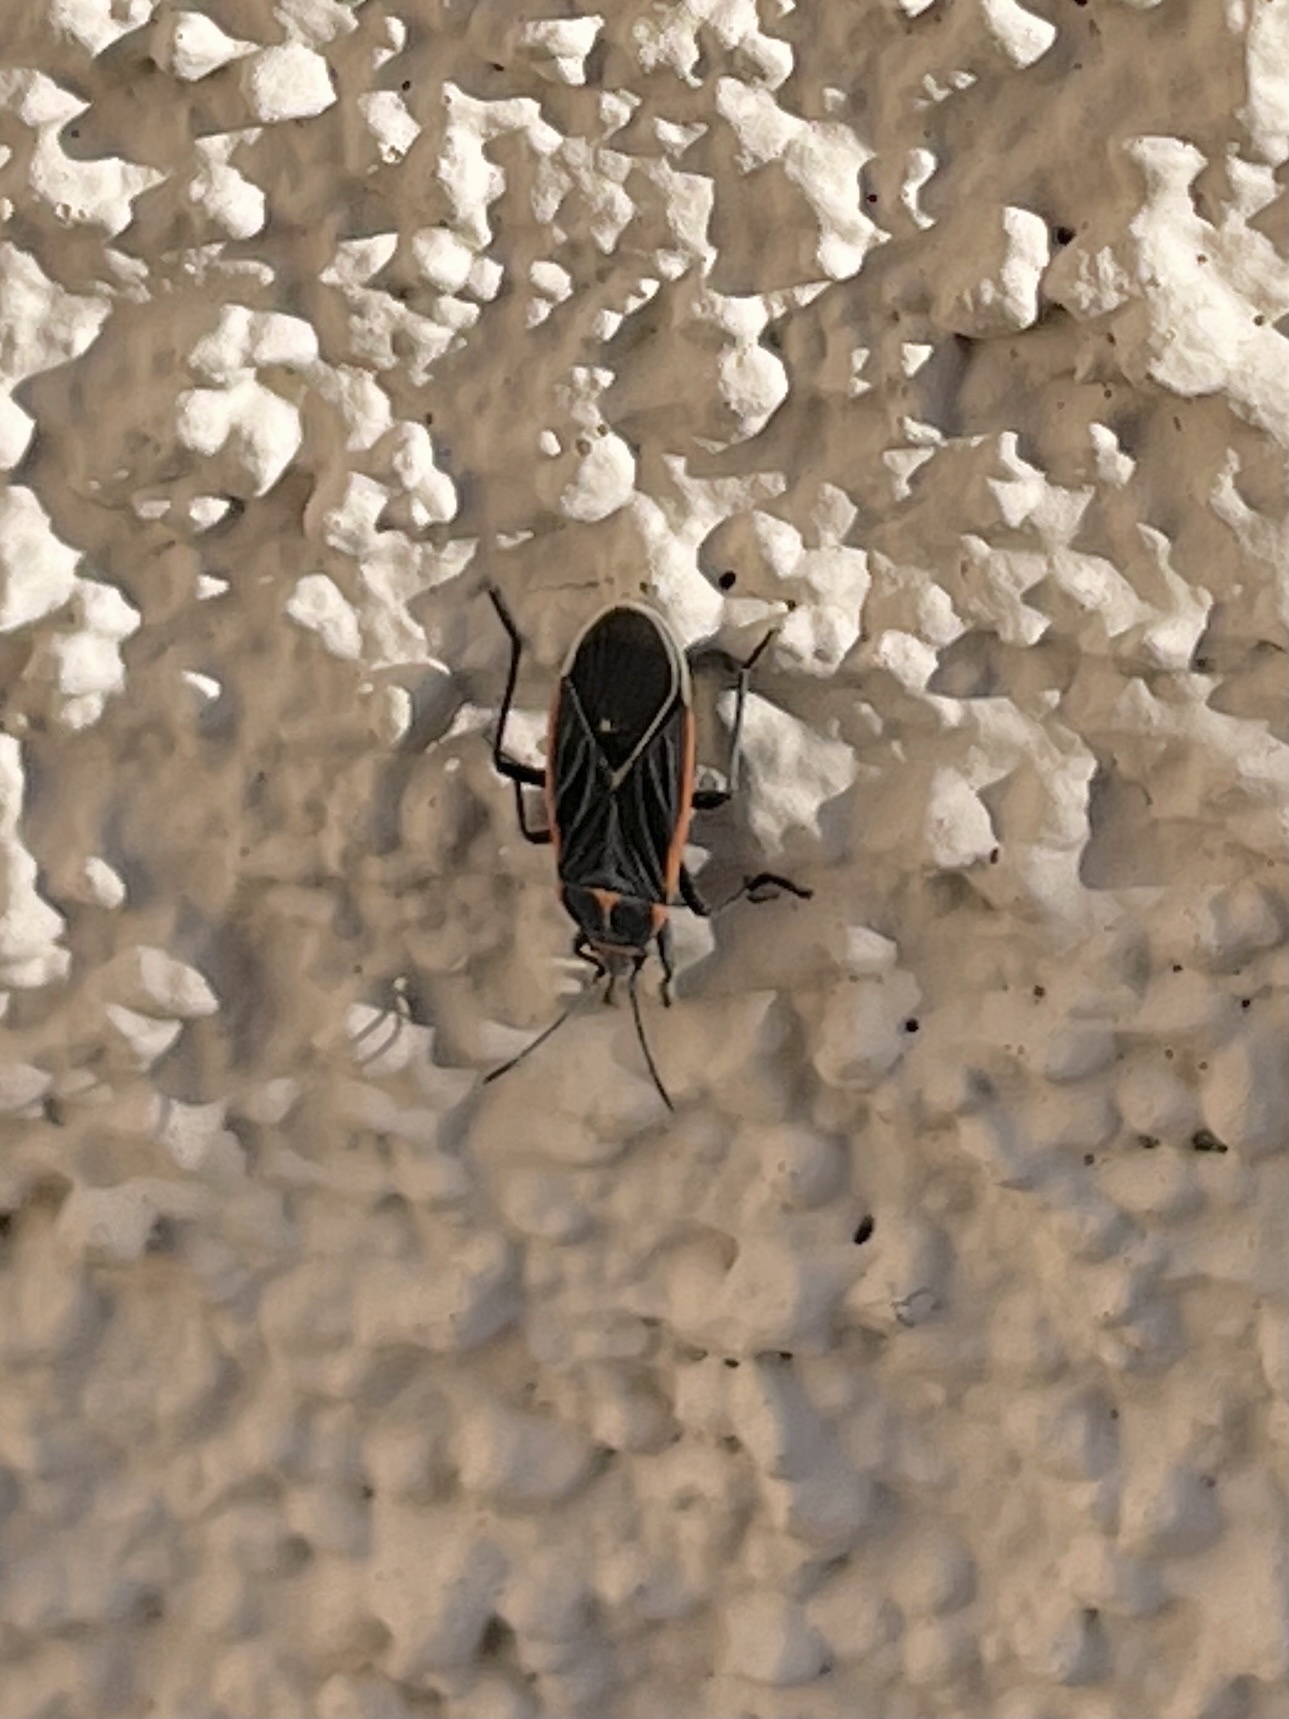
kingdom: Animalia
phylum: Arthropoda
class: Insecta
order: Hemiptera
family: Lygaeidae
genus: Melacoryphus
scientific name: Melacoryphus lateralis
